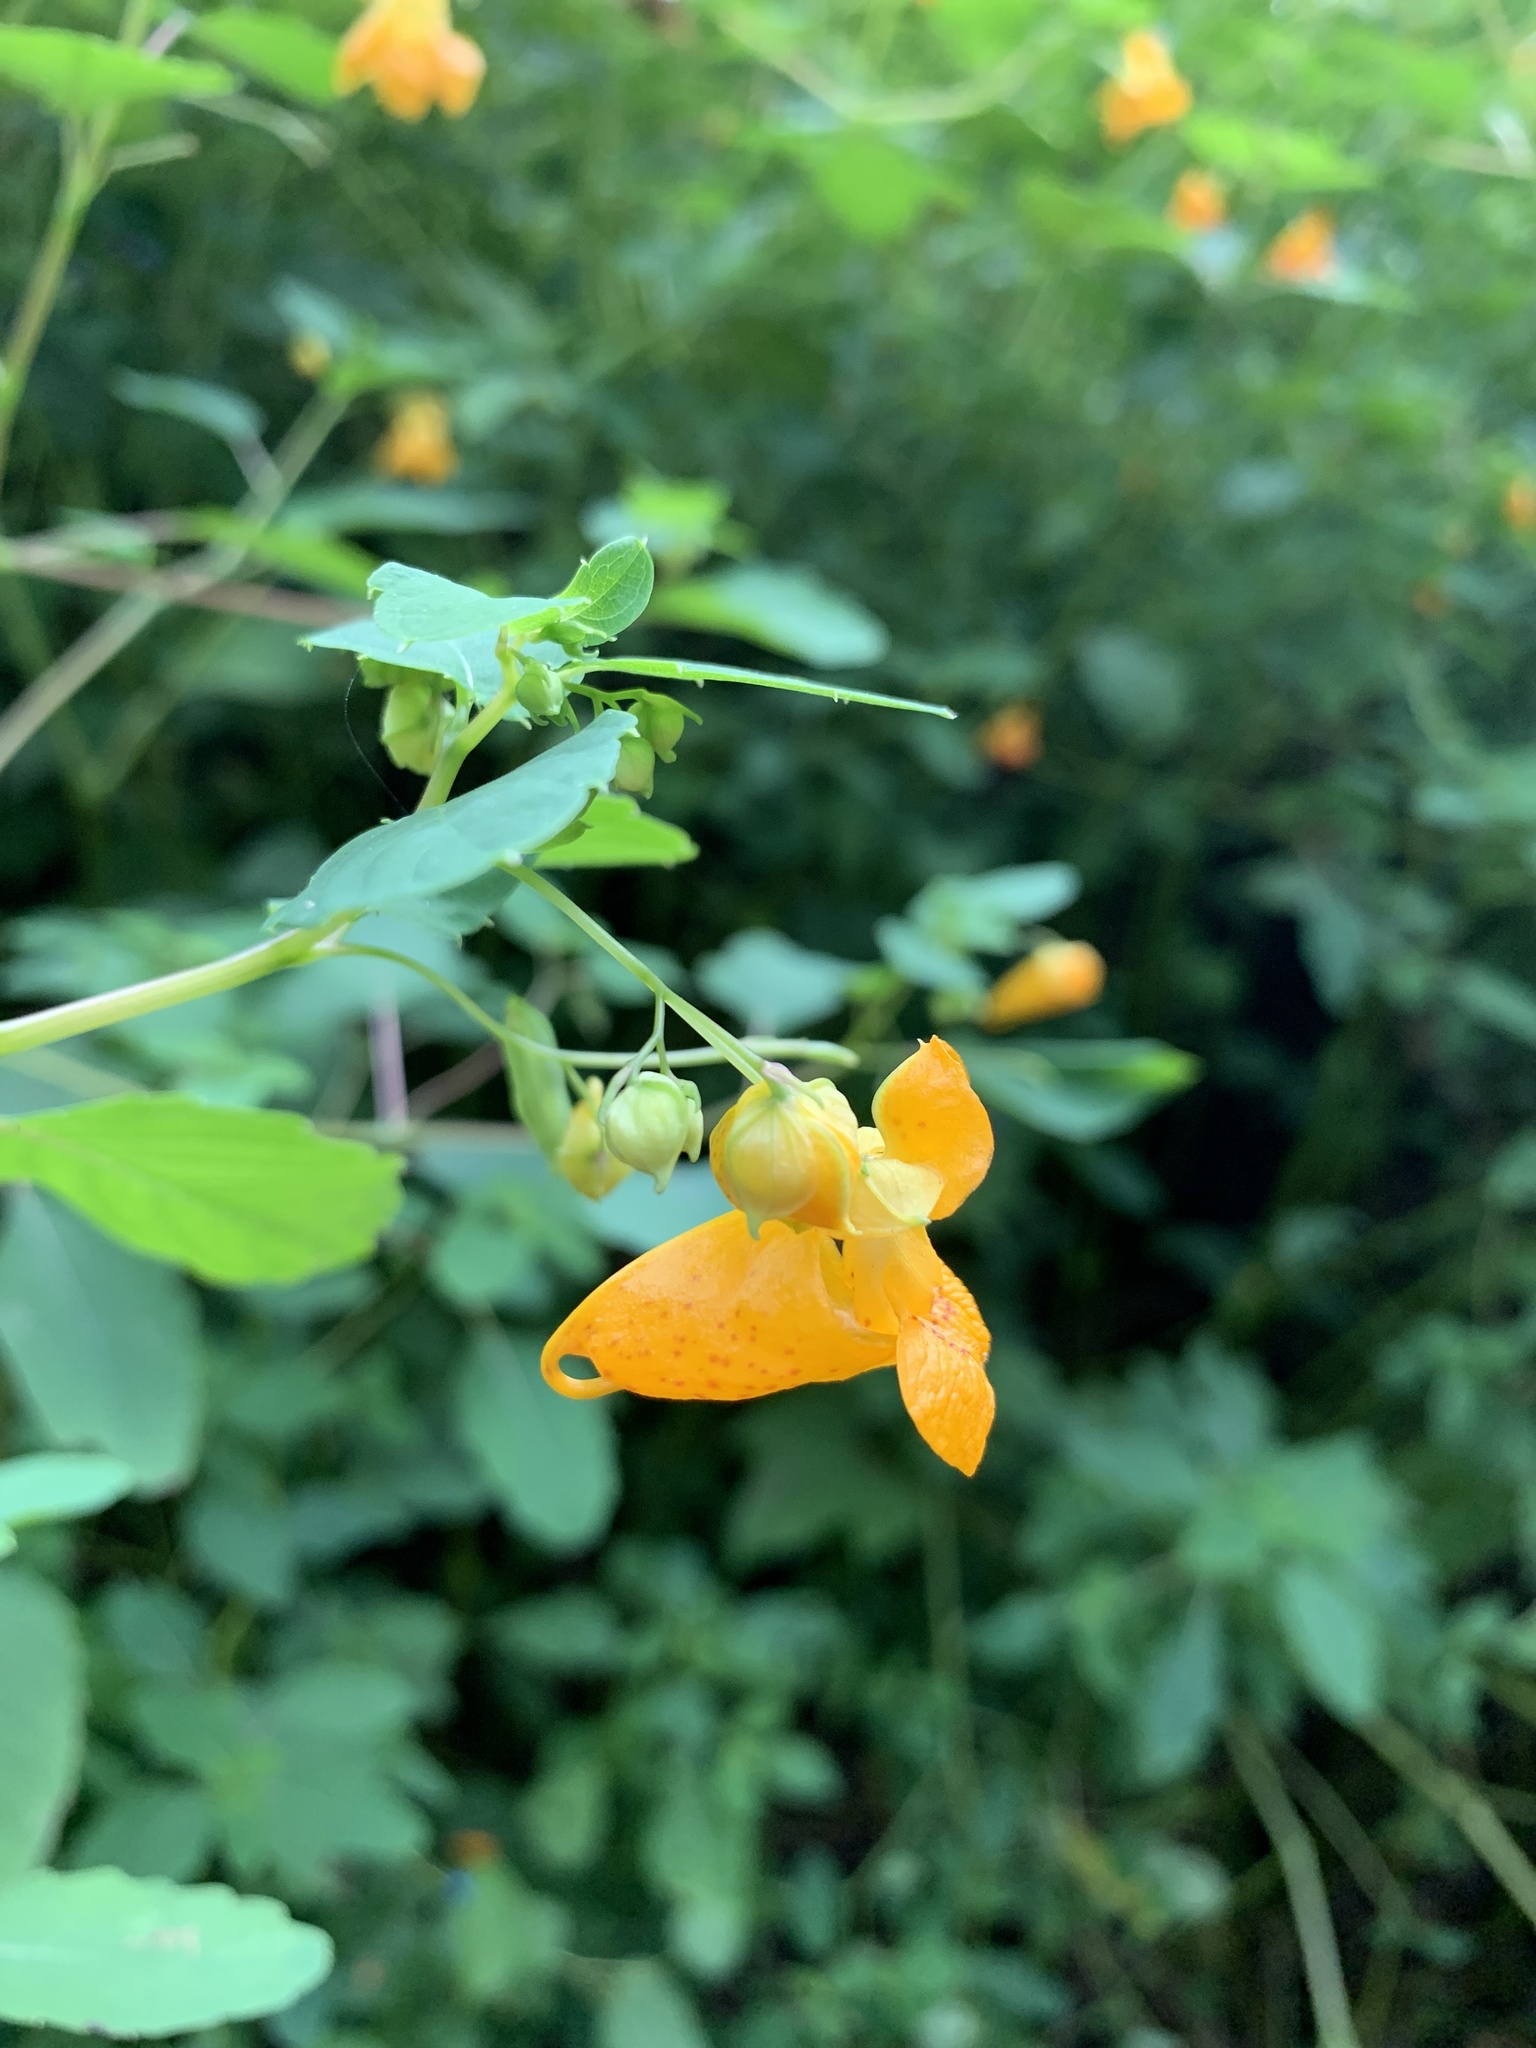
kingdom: Plantae
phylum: Tracheophyta
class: Magnoliopsida
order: Ericales
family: Balsaminaceae
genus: Impatiens
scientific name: Impatiens capensis
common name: Orange balsam
